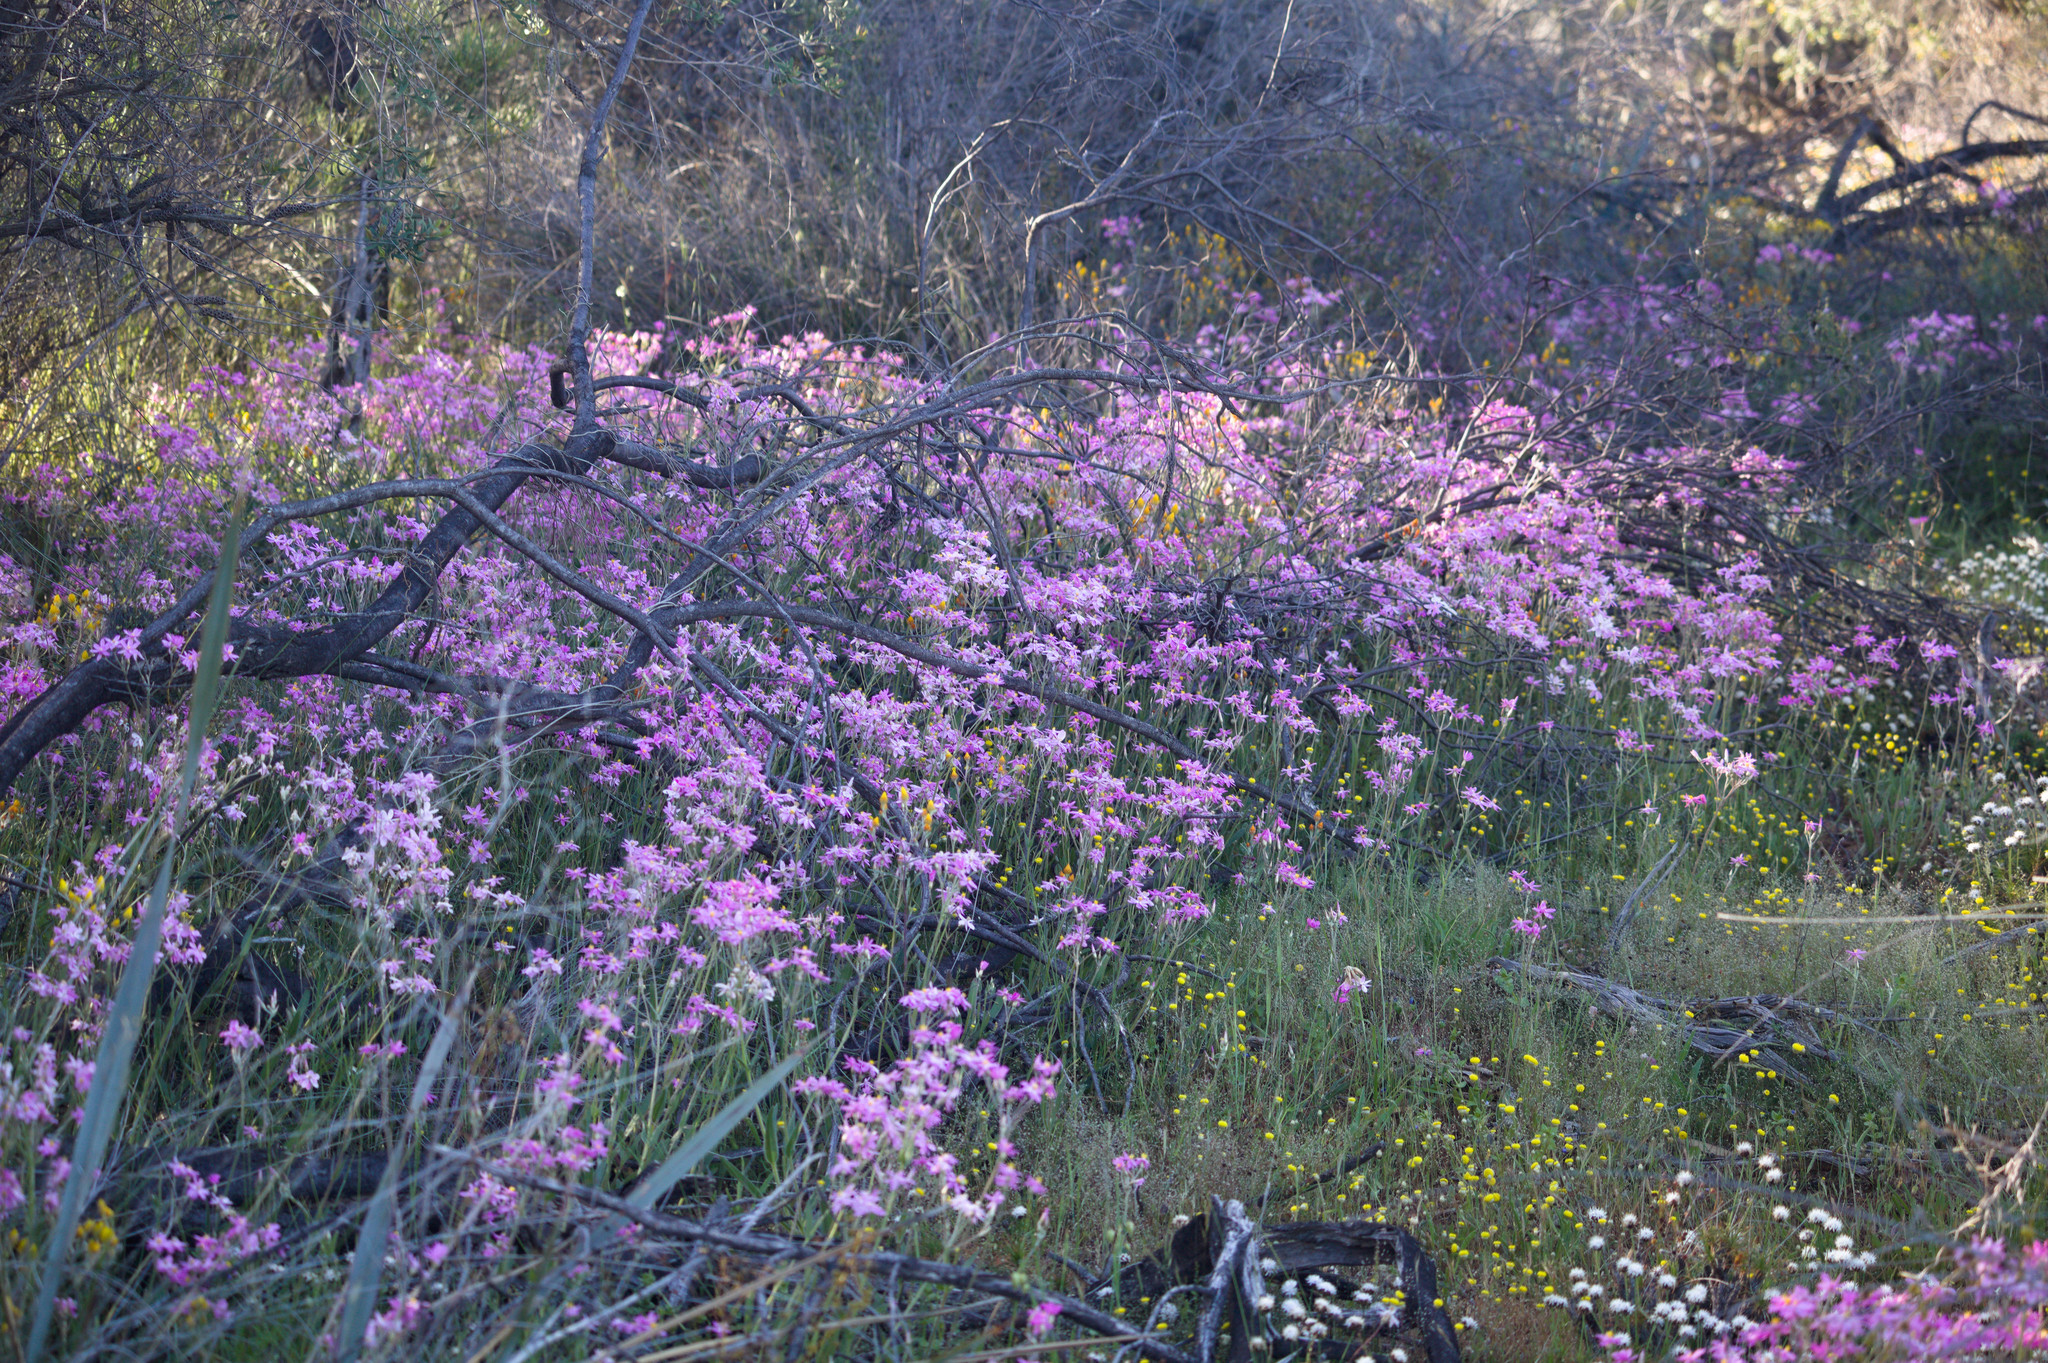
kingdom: Plantae
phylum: Tracheophyta
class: Magnoliopsida
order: Asterales
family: Asteraceae
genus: Schoenia
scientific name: Schoenia cassiniana
